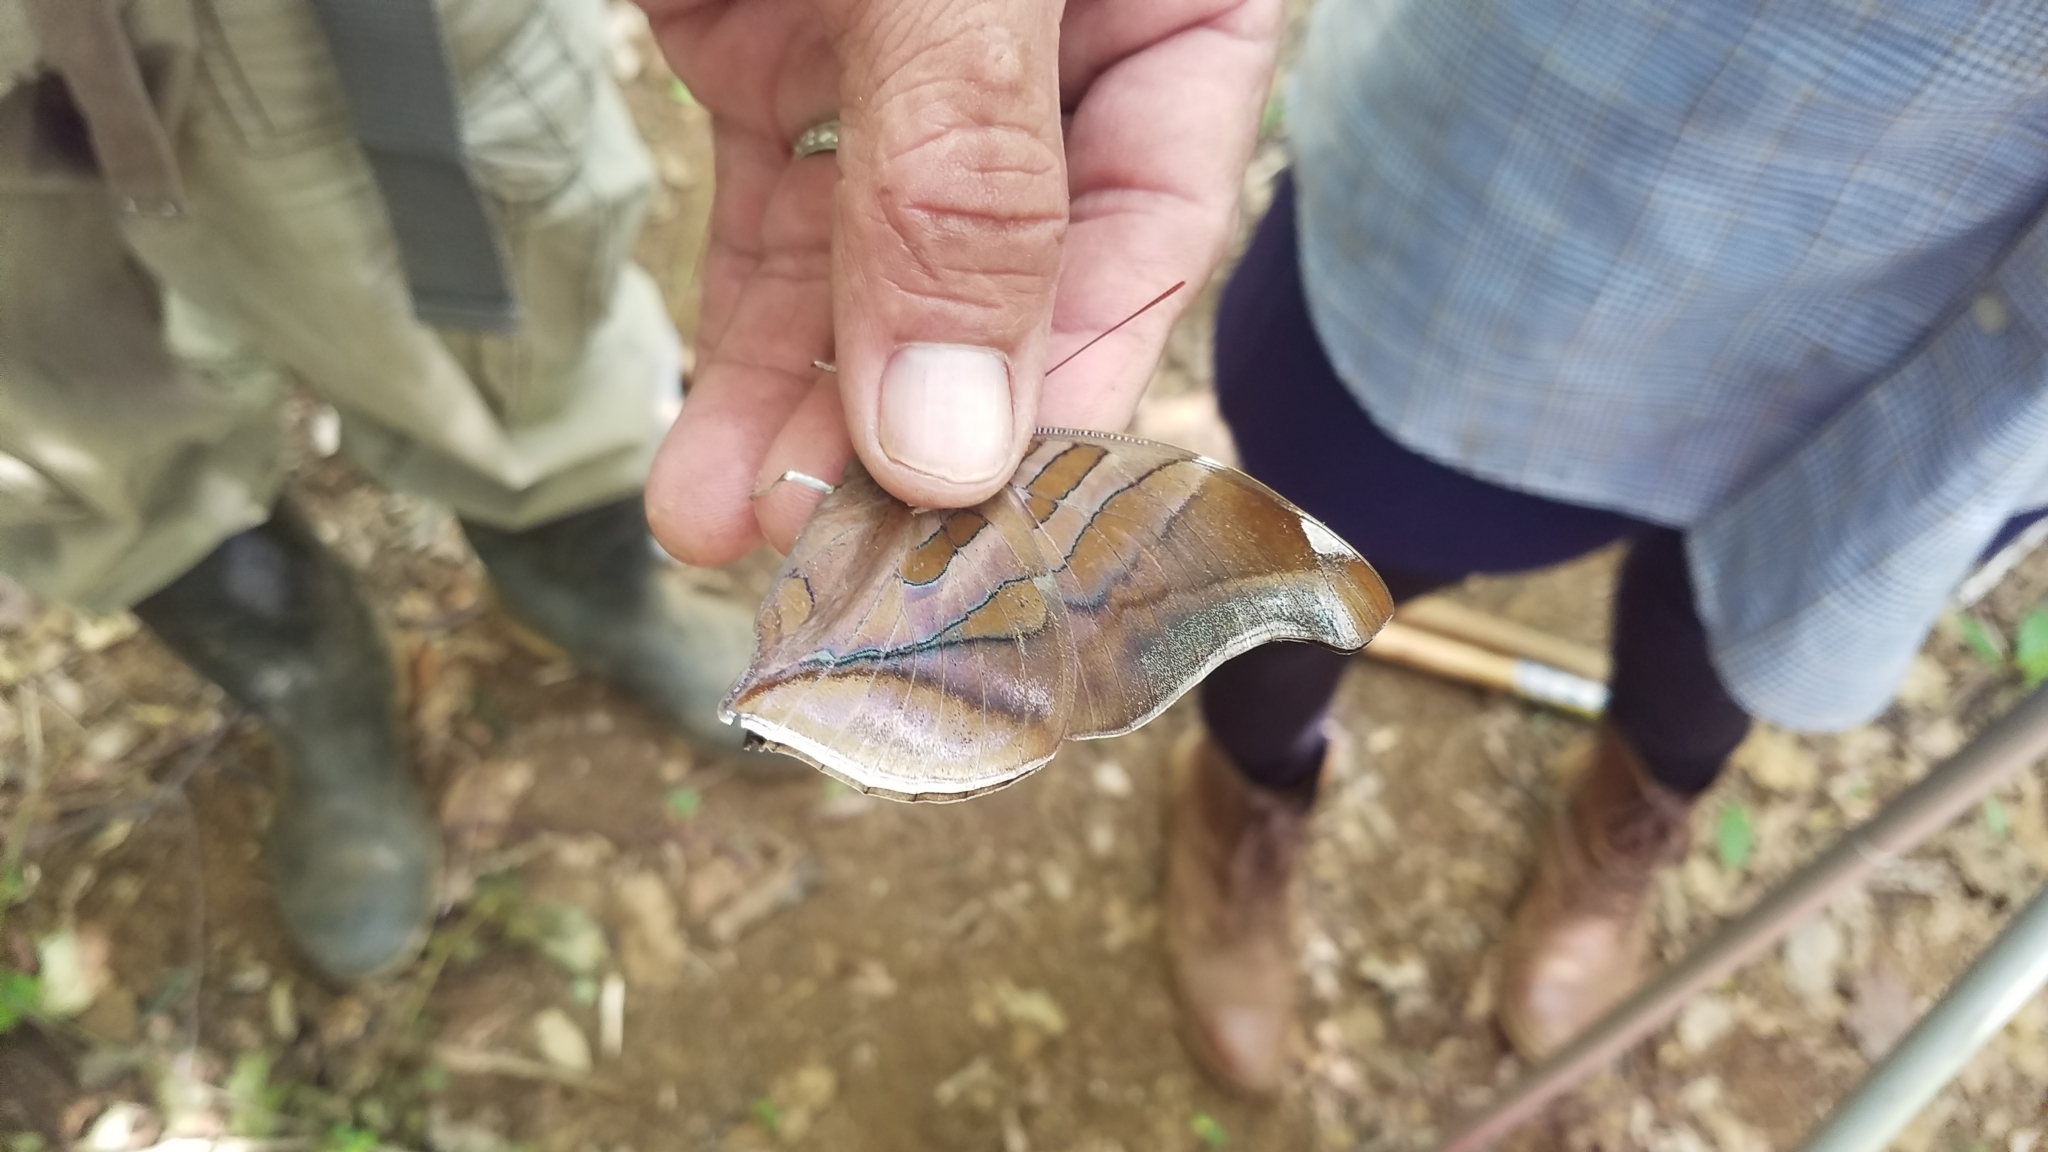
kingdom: Animalia
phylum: Arthropoda
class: Insecta
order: Lepidoptera
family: Nymphalidae
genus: Historis
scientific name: Historis odius
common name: Orion cecropian
